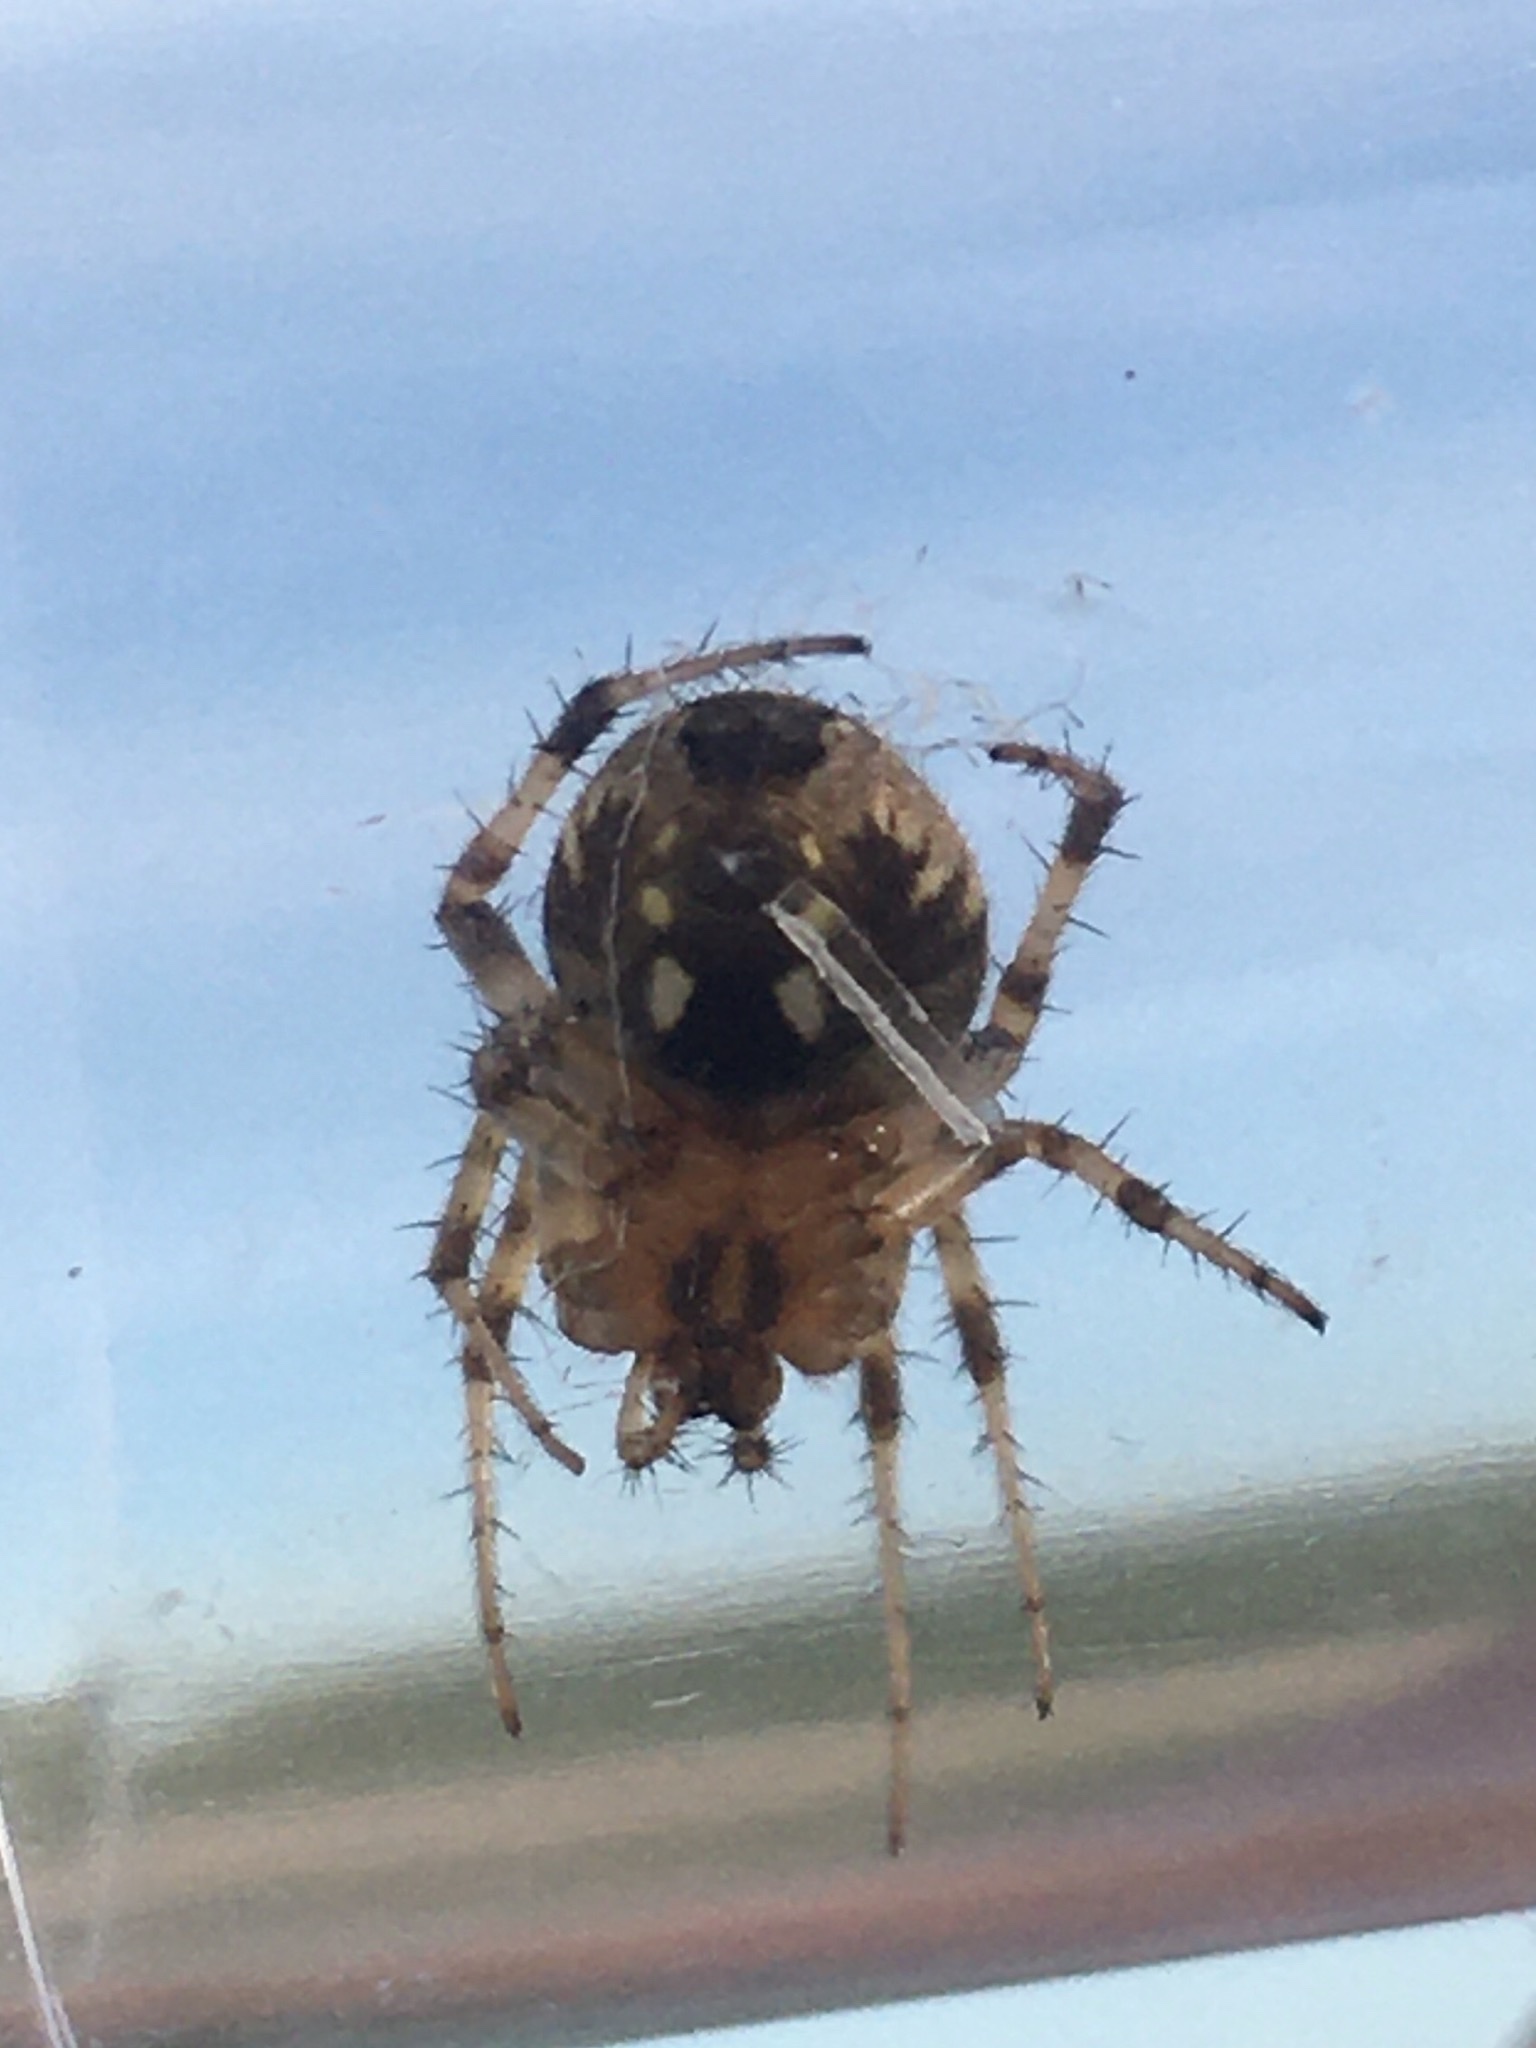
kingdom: Animalia
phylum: Arthropoda
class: Arachnida
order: Araneae
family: Araneidae
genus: Neoscona
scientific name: Neoscona arabesca
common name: Orb weavers
